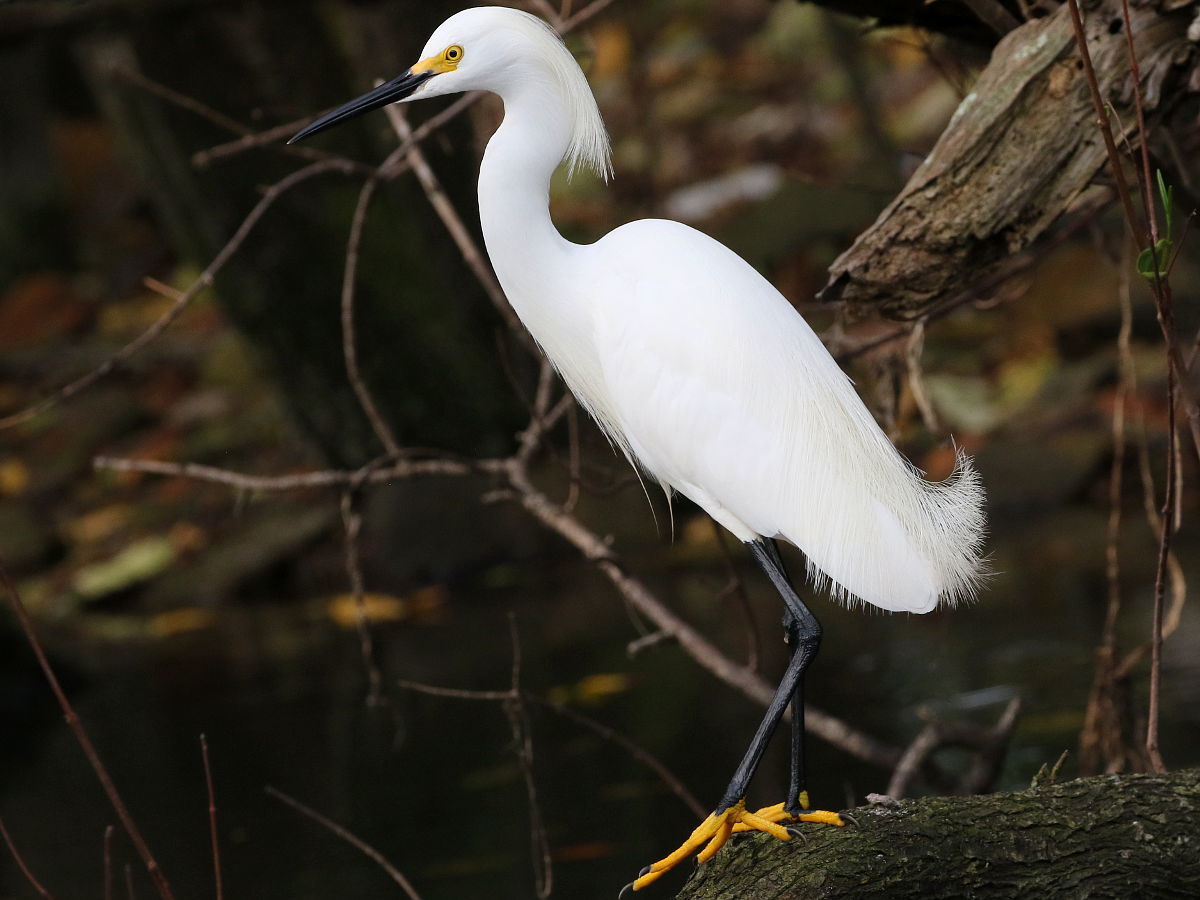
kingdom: Animalia
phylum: Chordata
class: Aves
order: Pelecaniformes
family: Ardeidae
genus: Egretta
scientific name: Egretta thula
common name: Snowy egret
